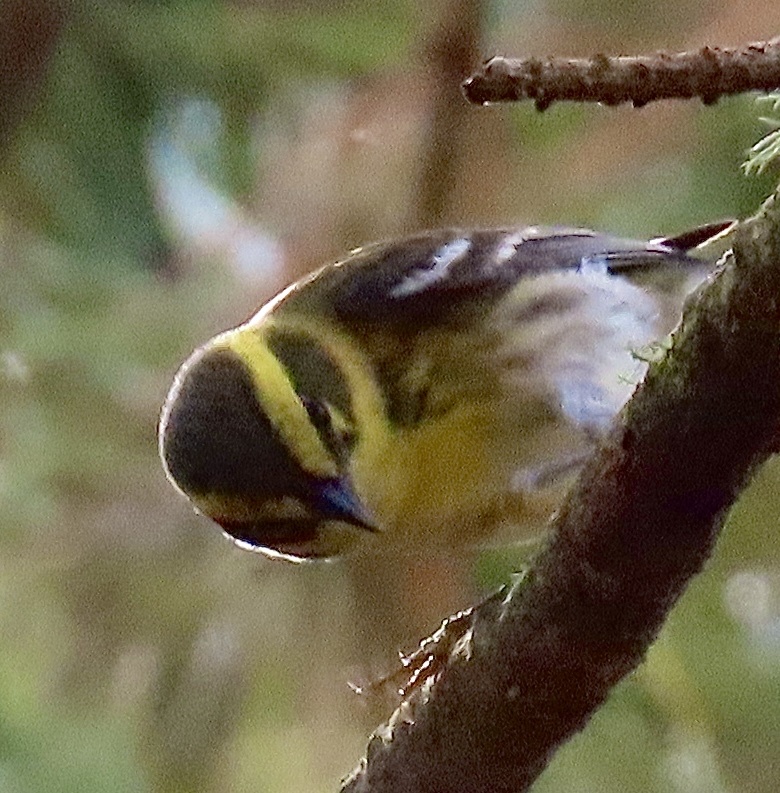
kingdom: Animalia
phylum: Chordata
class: Aves
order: Passeriformes
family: Parulidae
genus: Setophaga
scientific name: Setophaga townsendi
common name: Townsend's warbler
